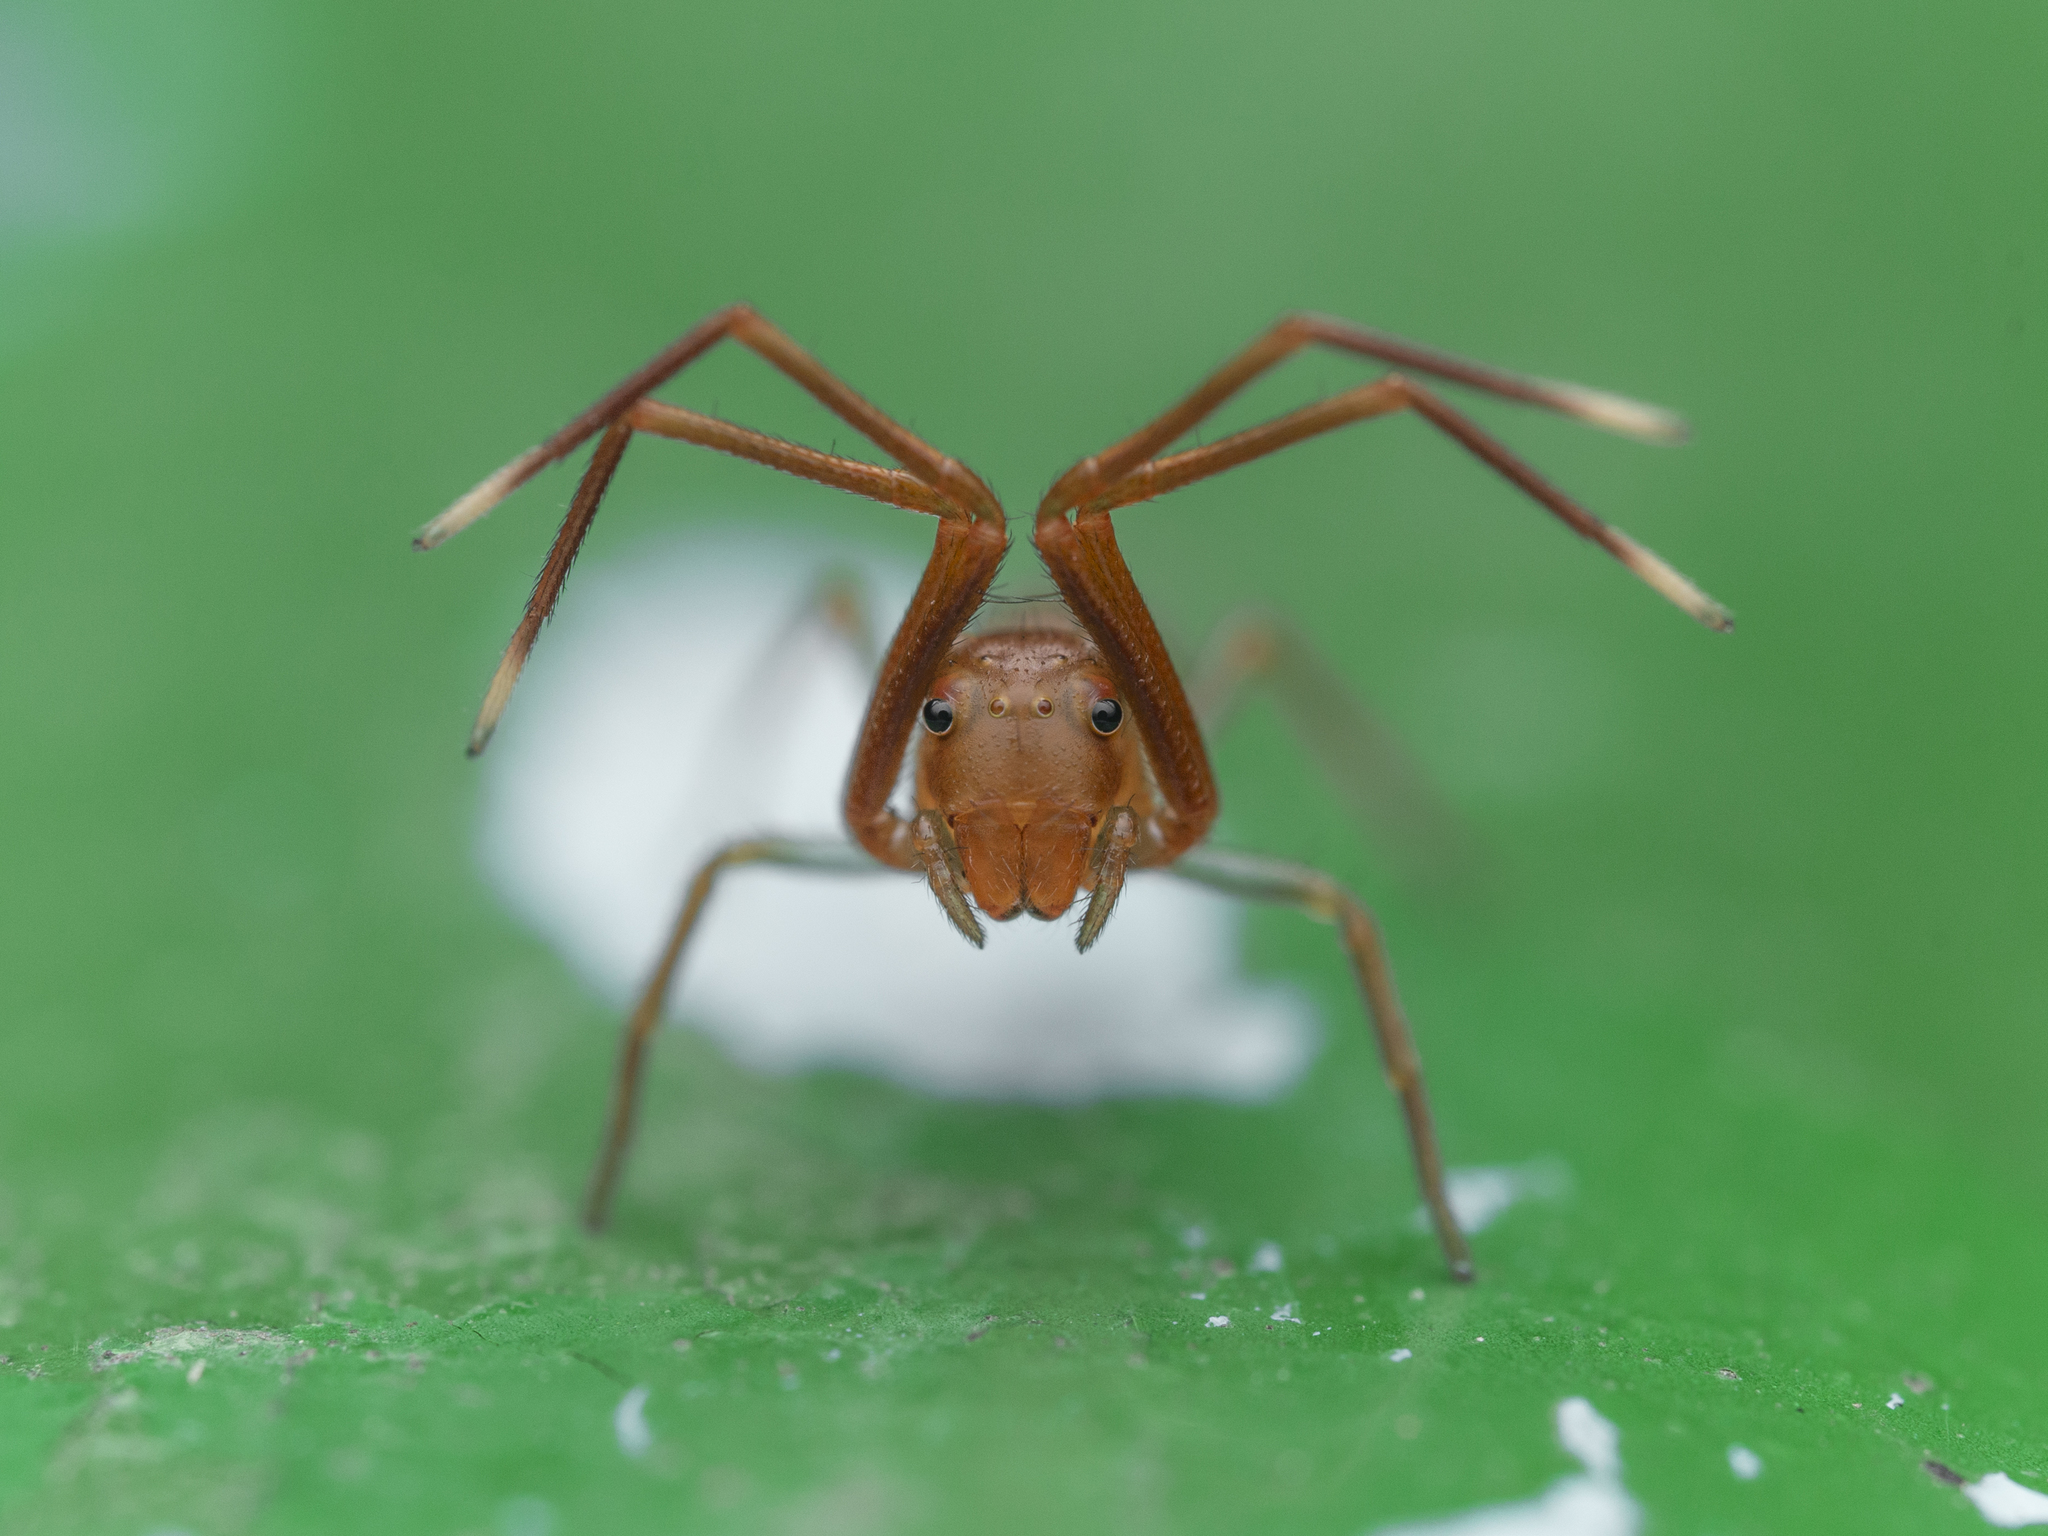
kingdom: Animalia
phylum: Arthropoda
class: Arachnida
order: Araneae
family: Thomisidae
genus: Amyciaea
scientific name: Amyciaea forticeps
